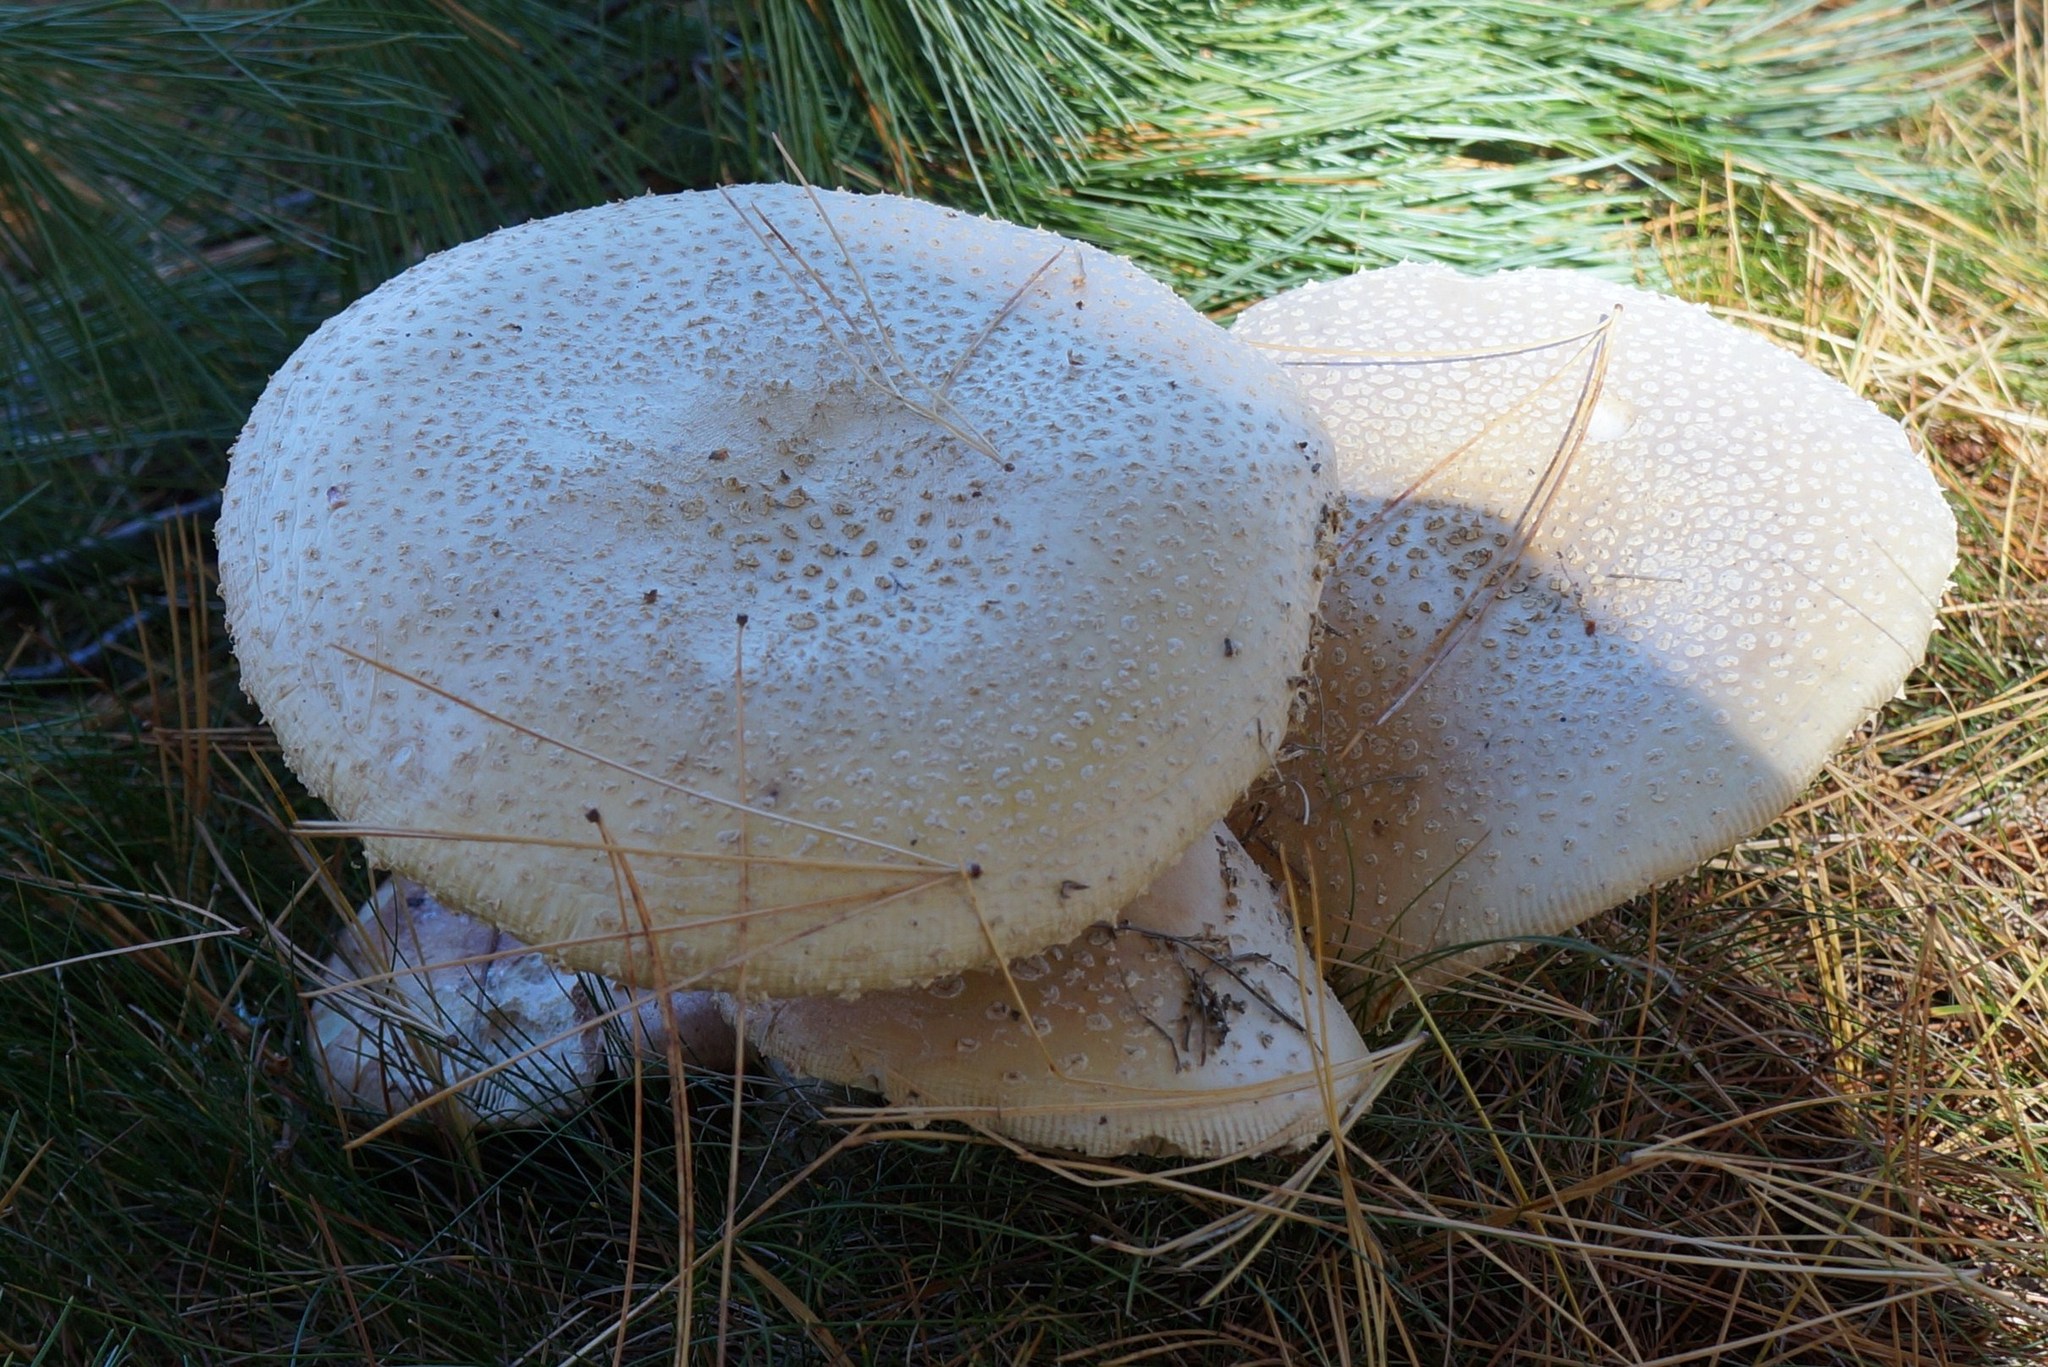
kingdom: Fungi
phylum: Basidiomycota
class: Agaricomycetes
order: Agaricales
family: Amanitaceae
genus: Amanita
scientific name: Amanita muscaria
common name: Fly agaric
